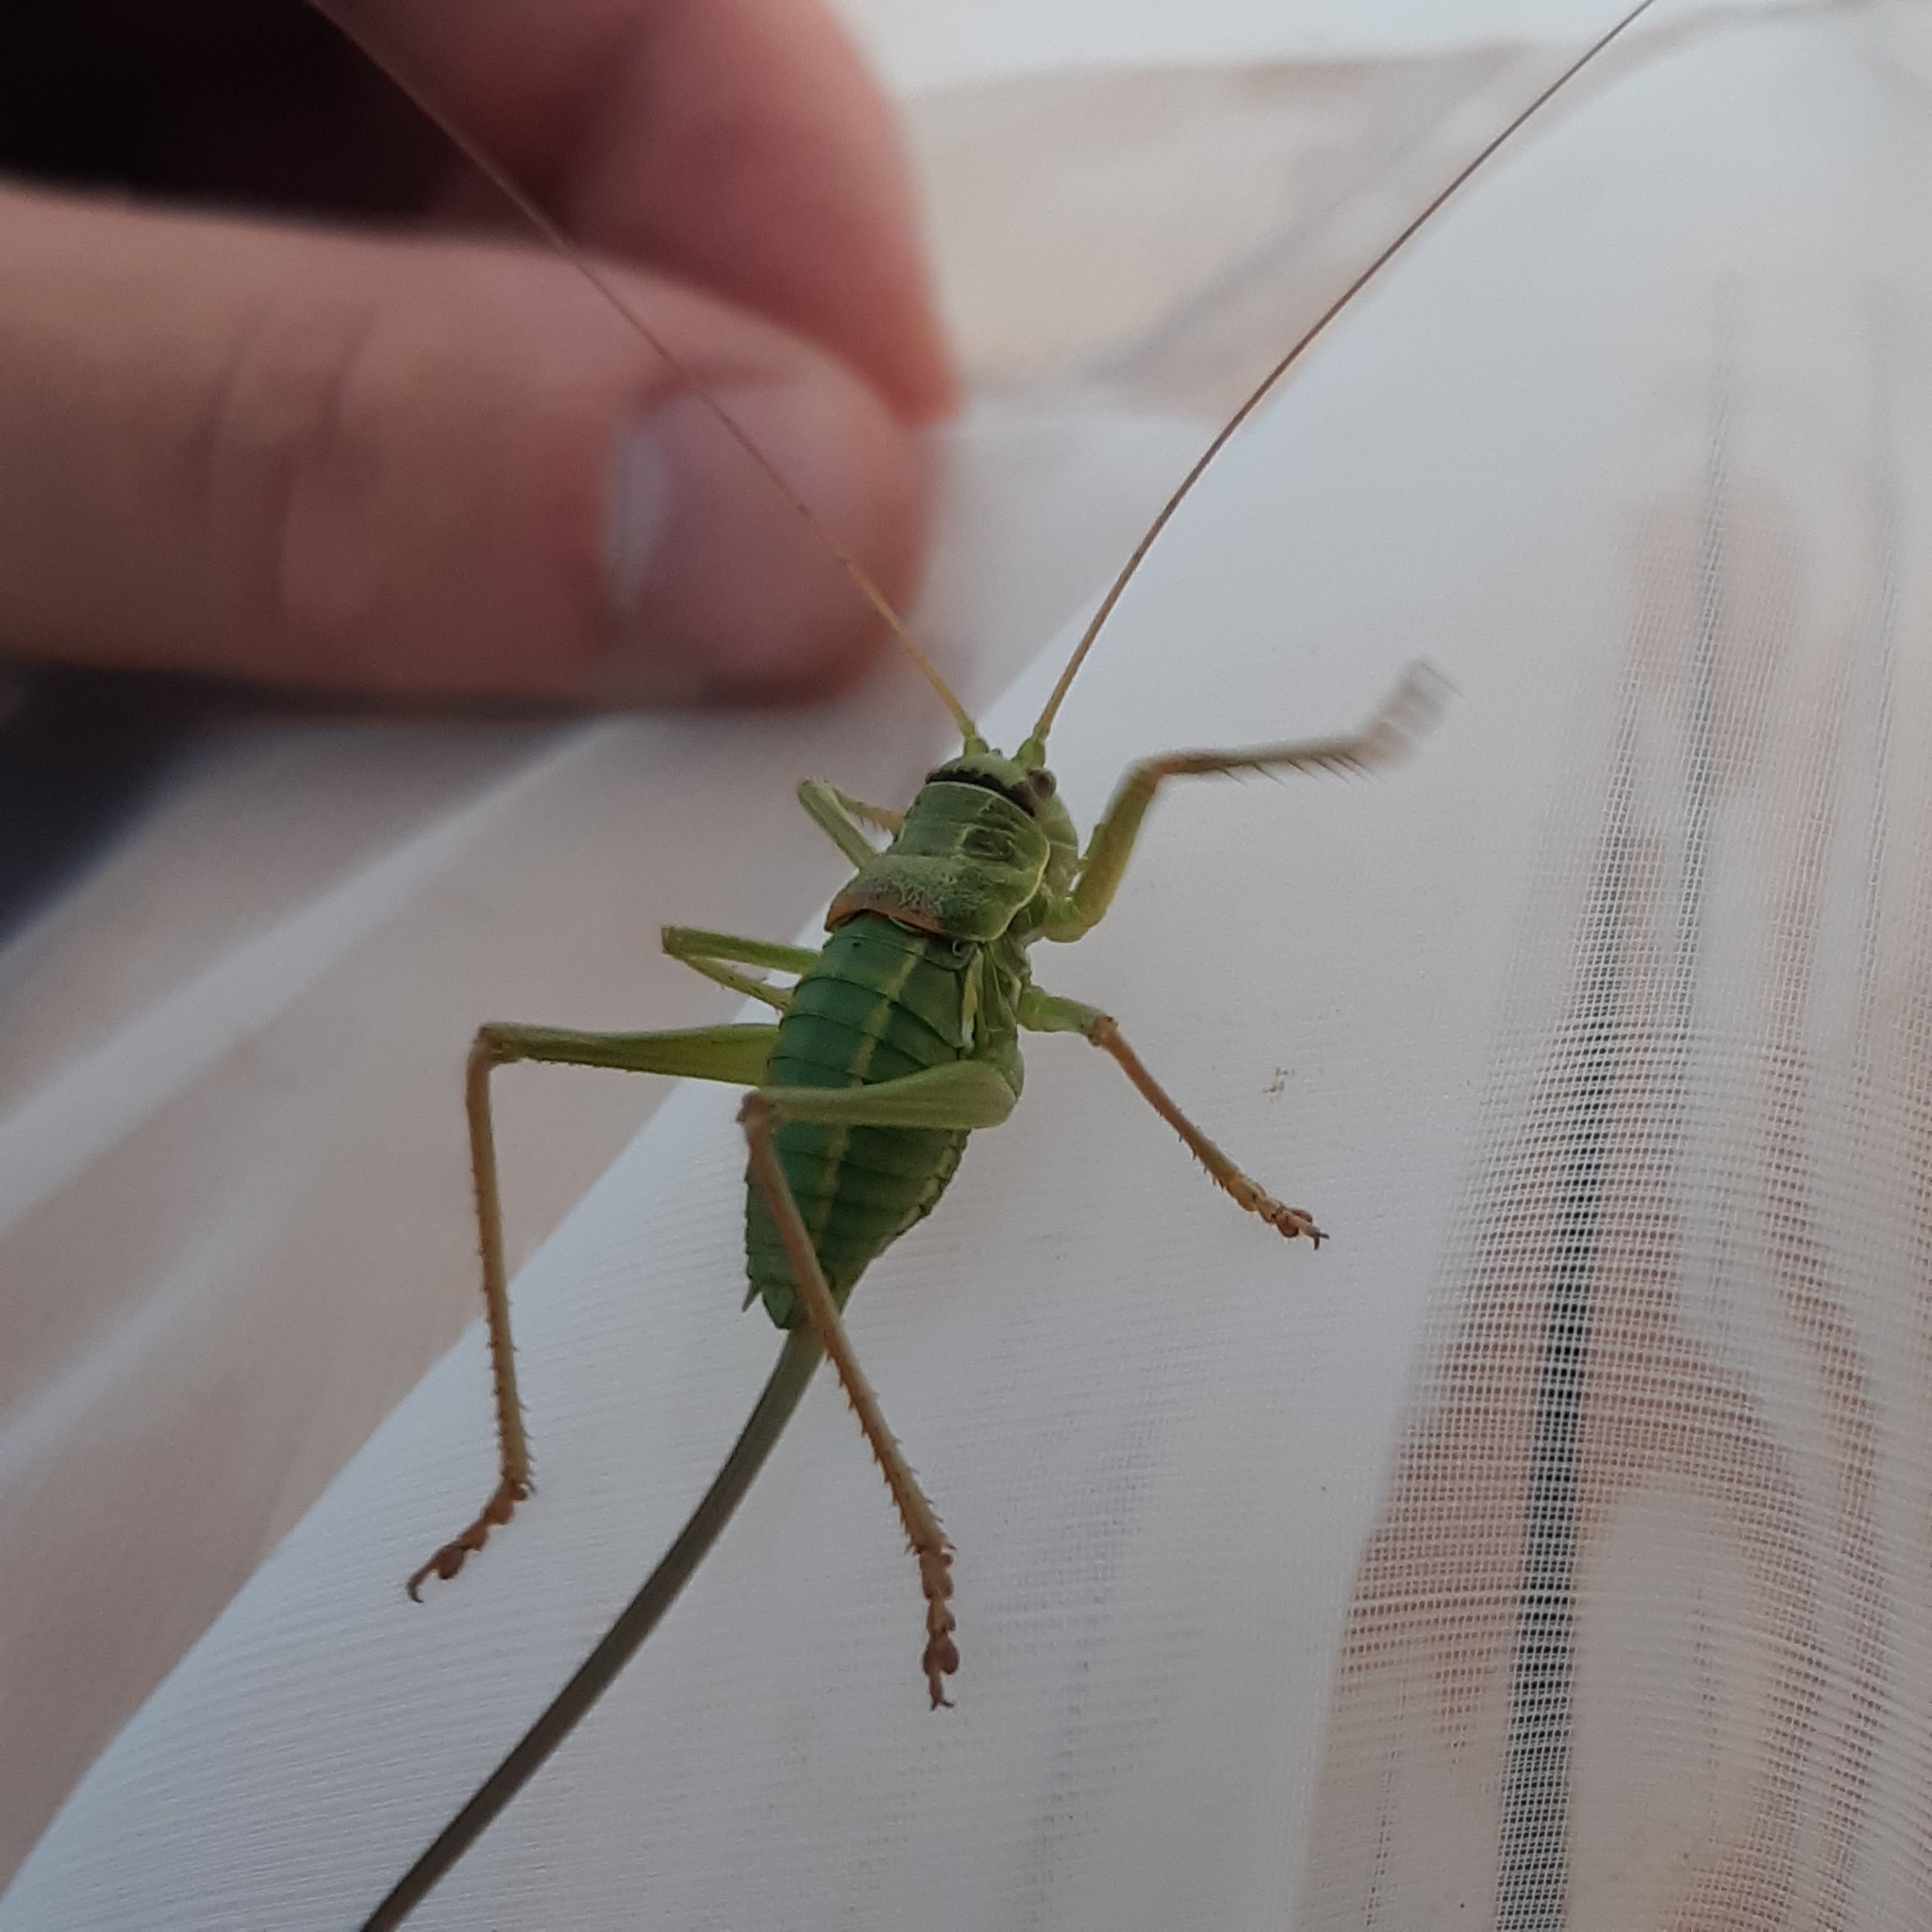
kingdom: Animalia
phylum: Arthropoda
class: Insecta
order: Orthoptera
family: Tettigoniidae
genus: Ephippiger
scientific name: Ephippiger terrestris
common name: Alpine saddle-backed bush-cricket
